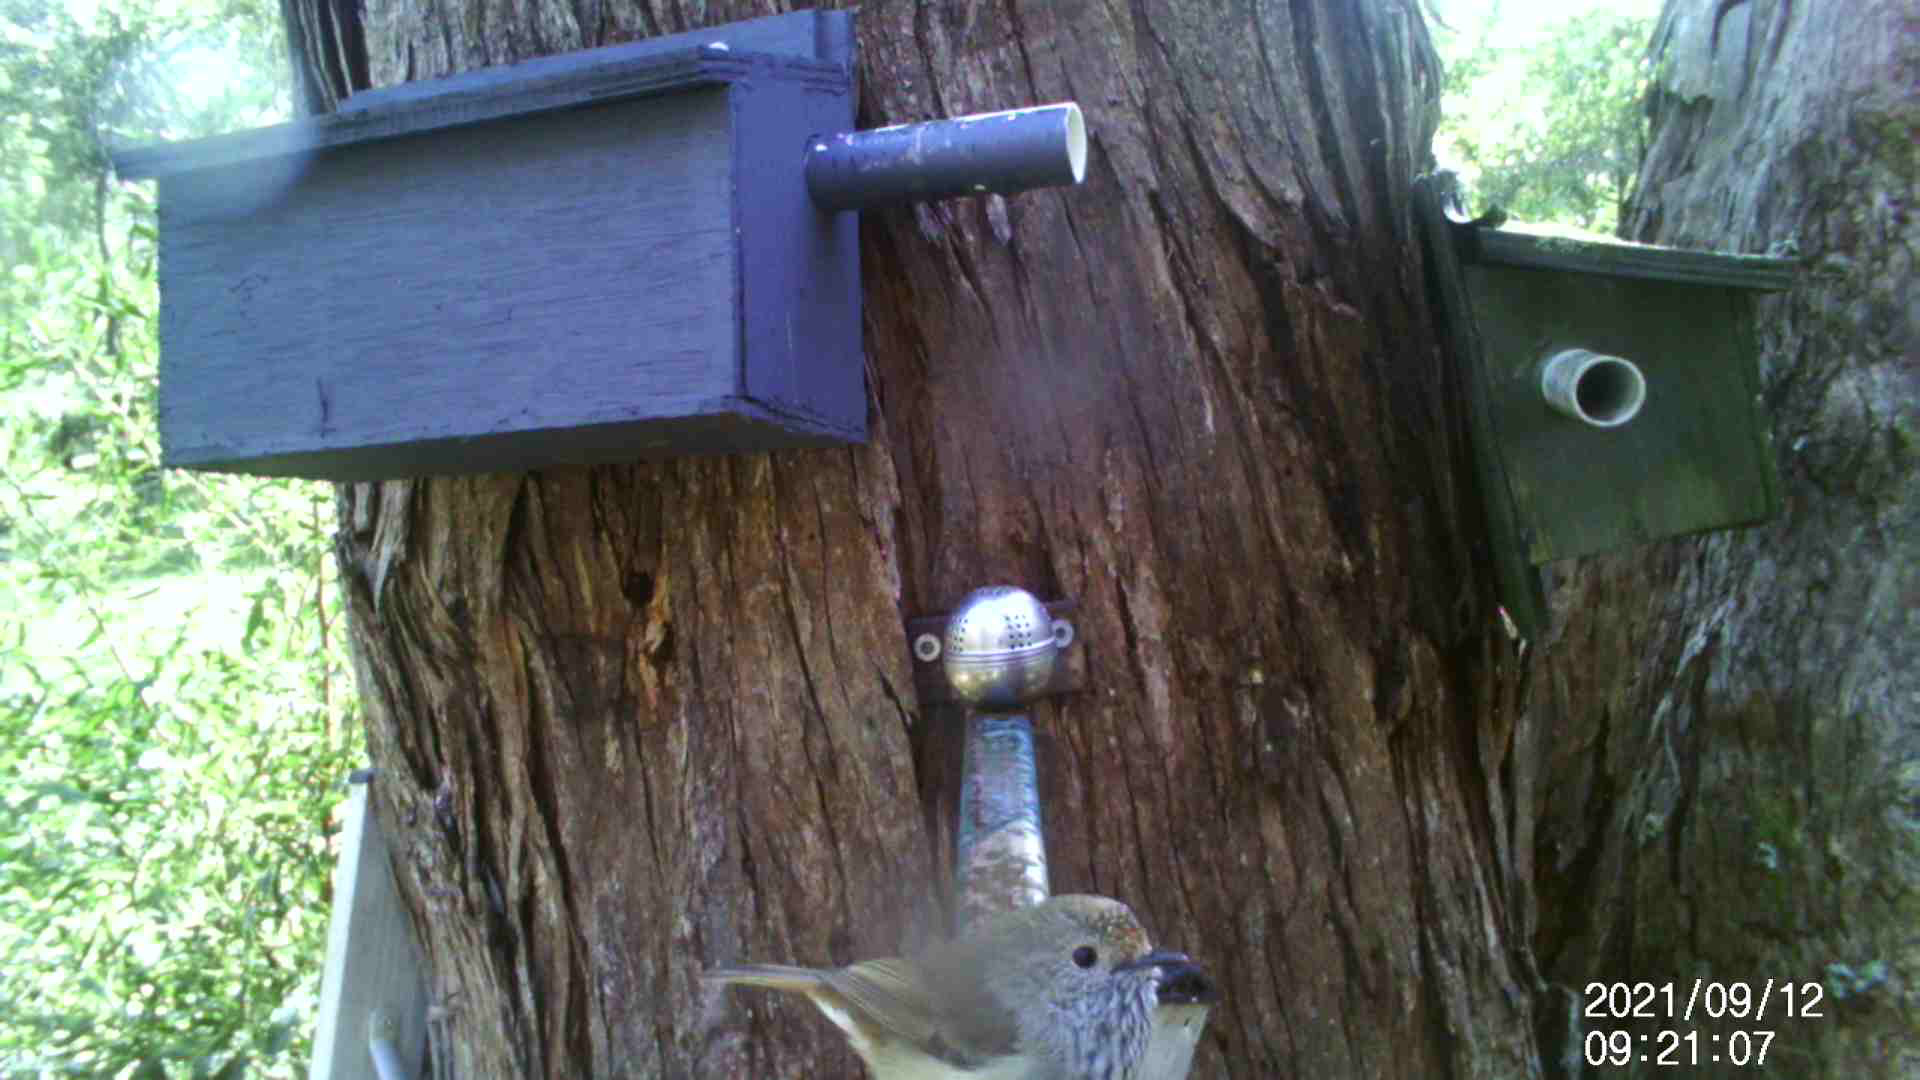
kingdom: Animalia
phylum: Chordata
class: Aves
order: Passeriformes
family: Acanthizidae
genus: Acanthiza
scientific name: Acanthiza pusilla
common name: Brown thornbill
